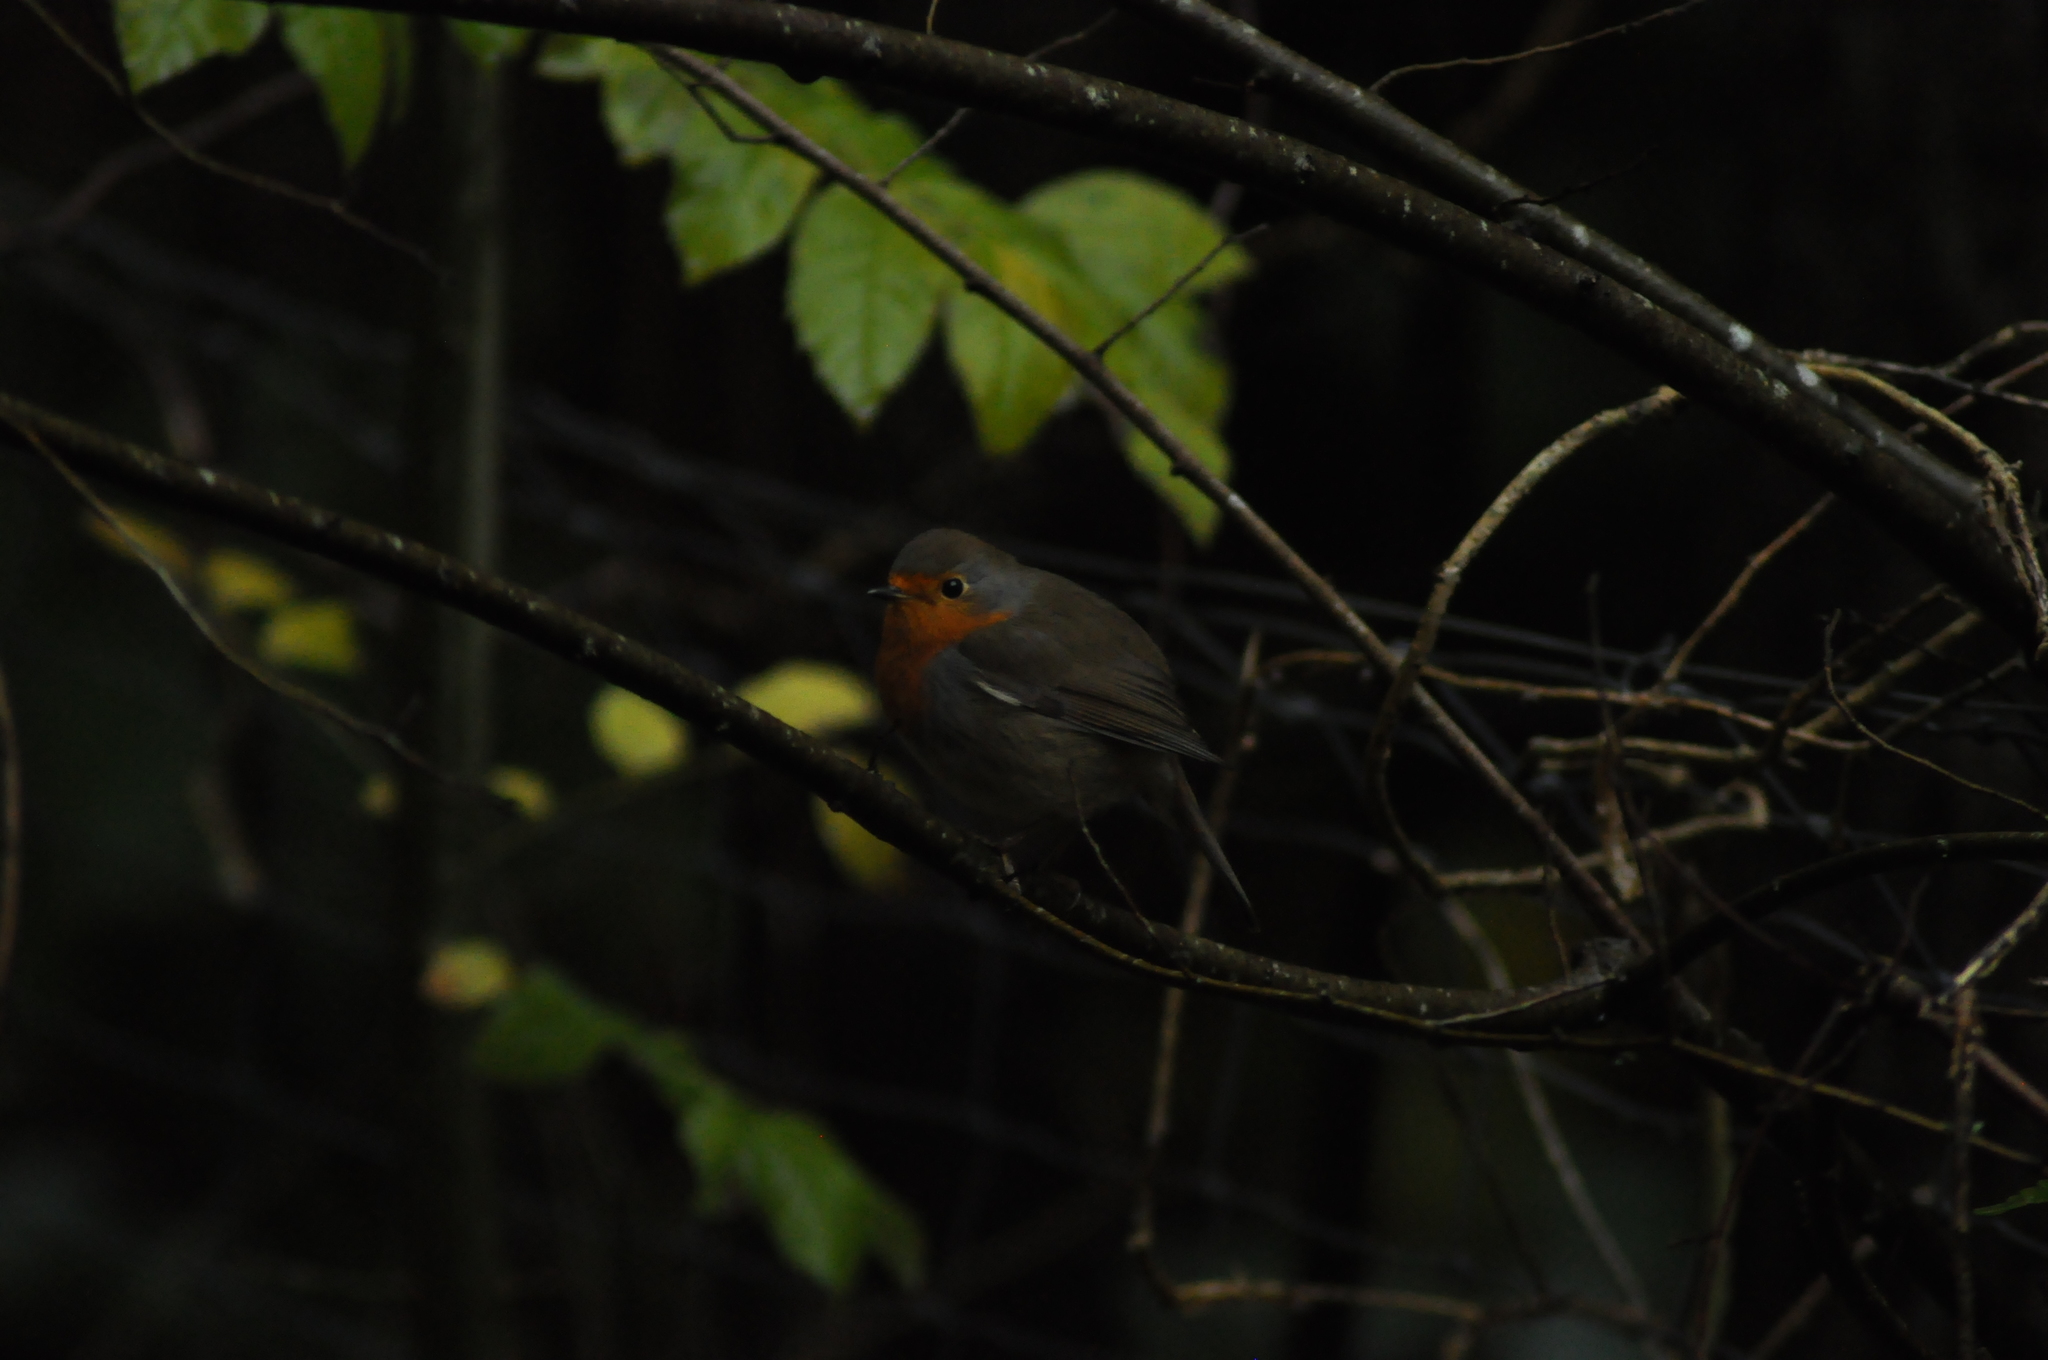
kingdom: Animalia
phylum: Chordata
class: Aves
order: Passeriformes
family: Muscicapidae
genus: Erithacus
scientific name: Erithacus rubecula
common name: European robin
